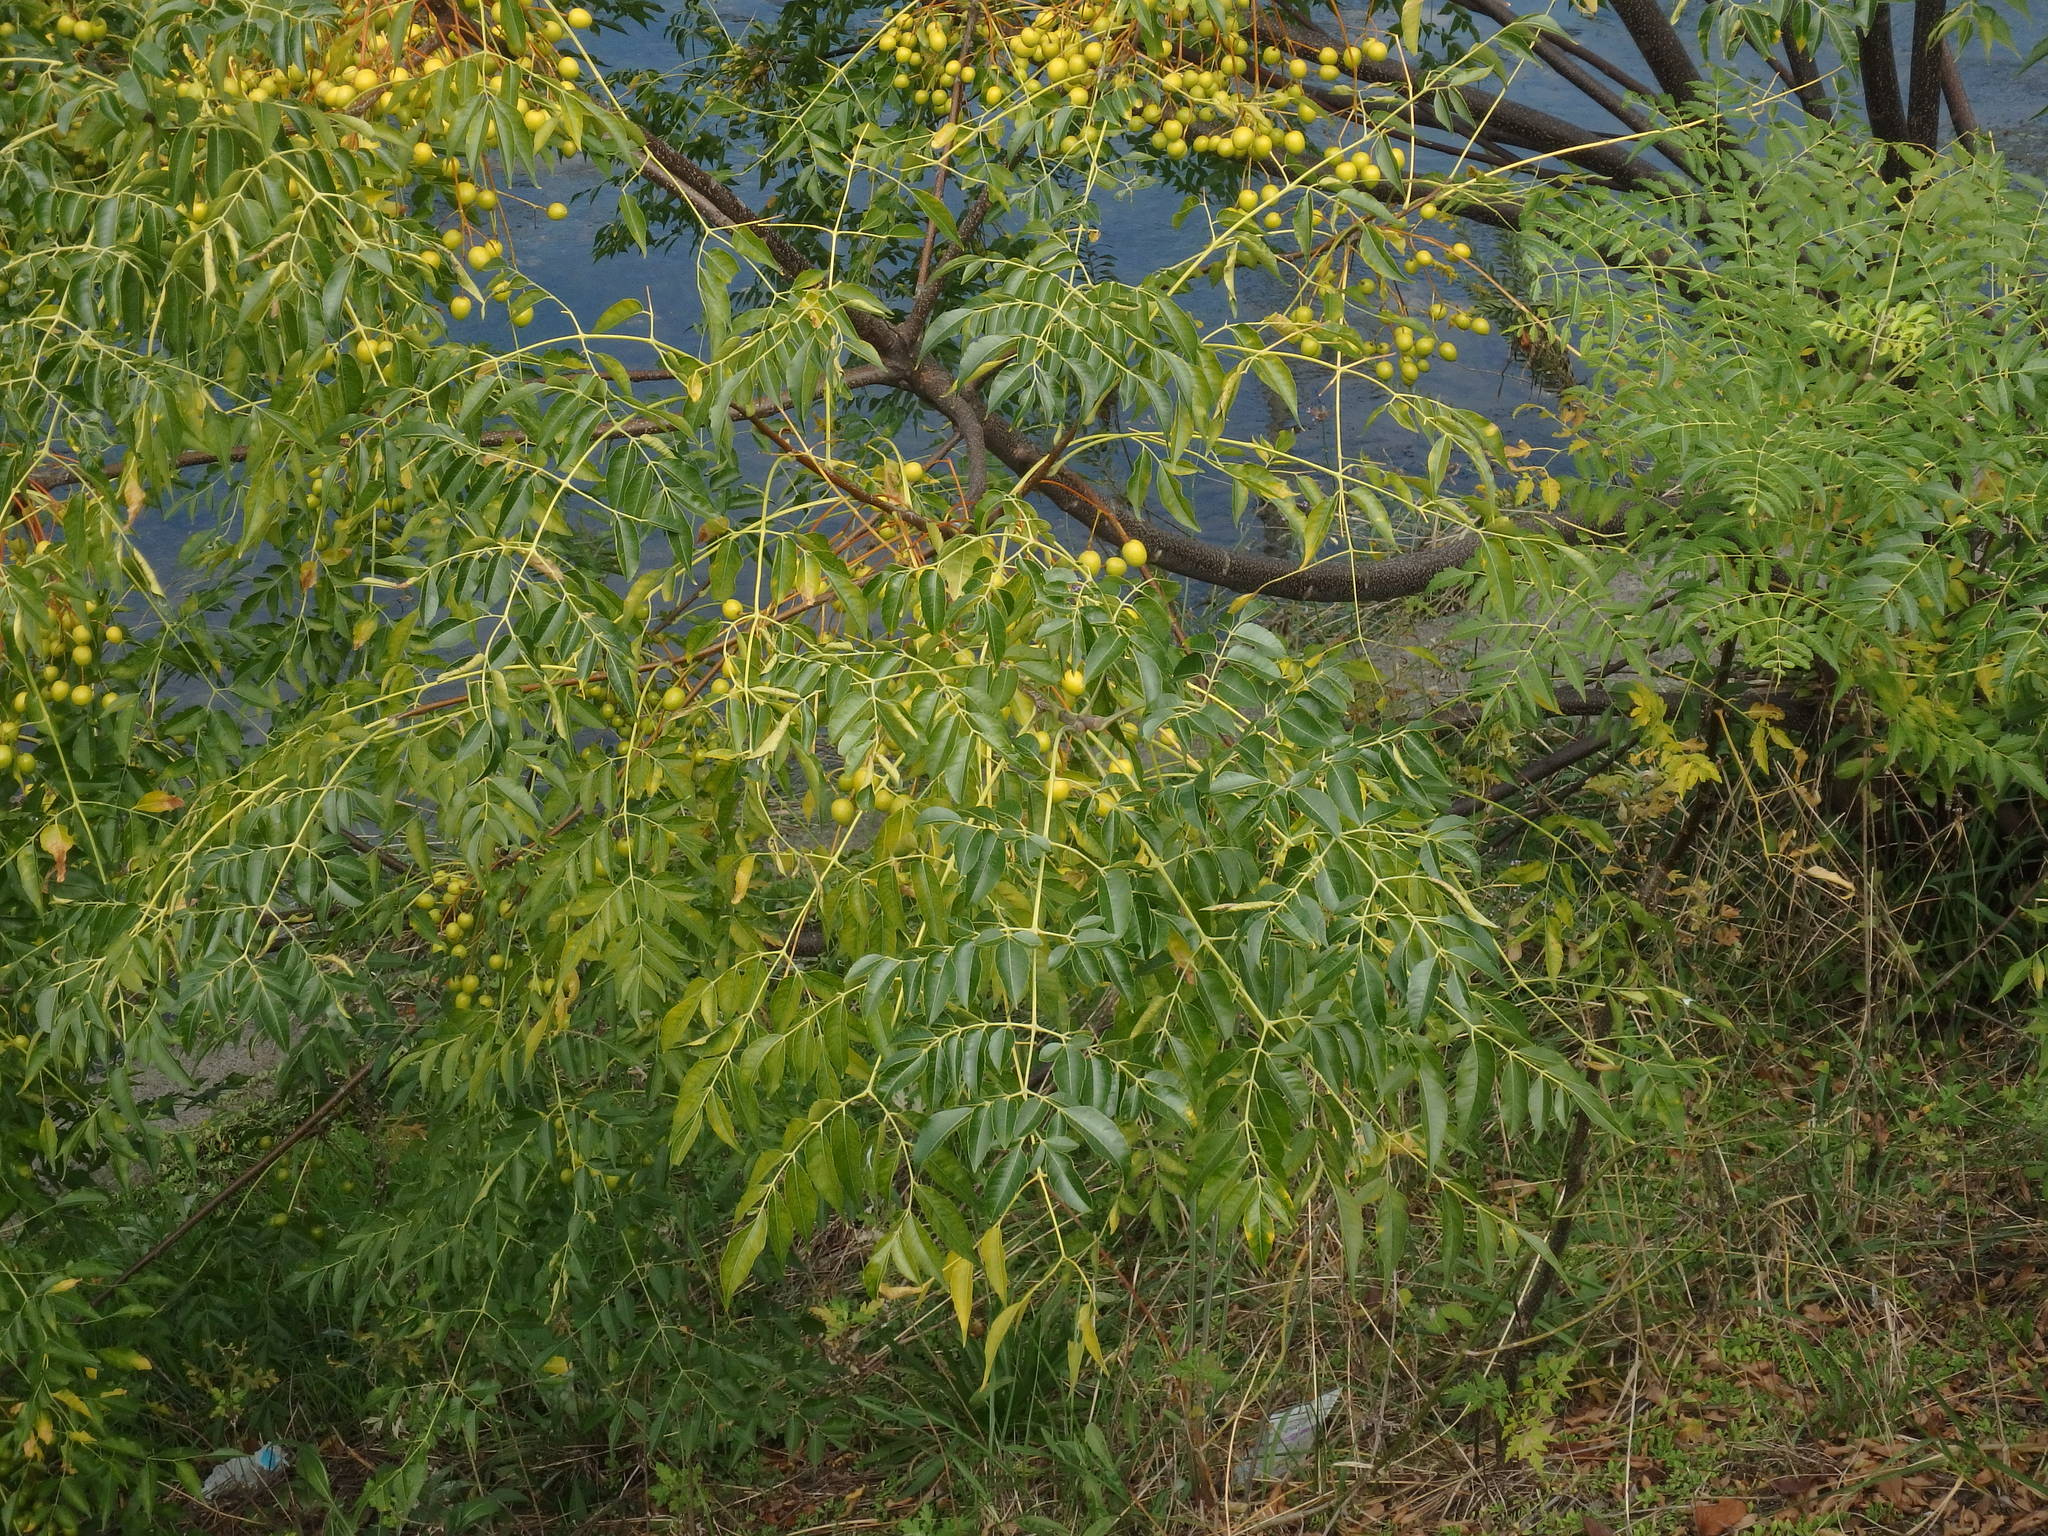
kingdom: Plantae
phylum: Tracheophyta
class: Magnoliopsida
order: Sapindales
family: Meliaceae
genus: Melia
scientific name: Melia azedarach
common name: Chinaberrytree
